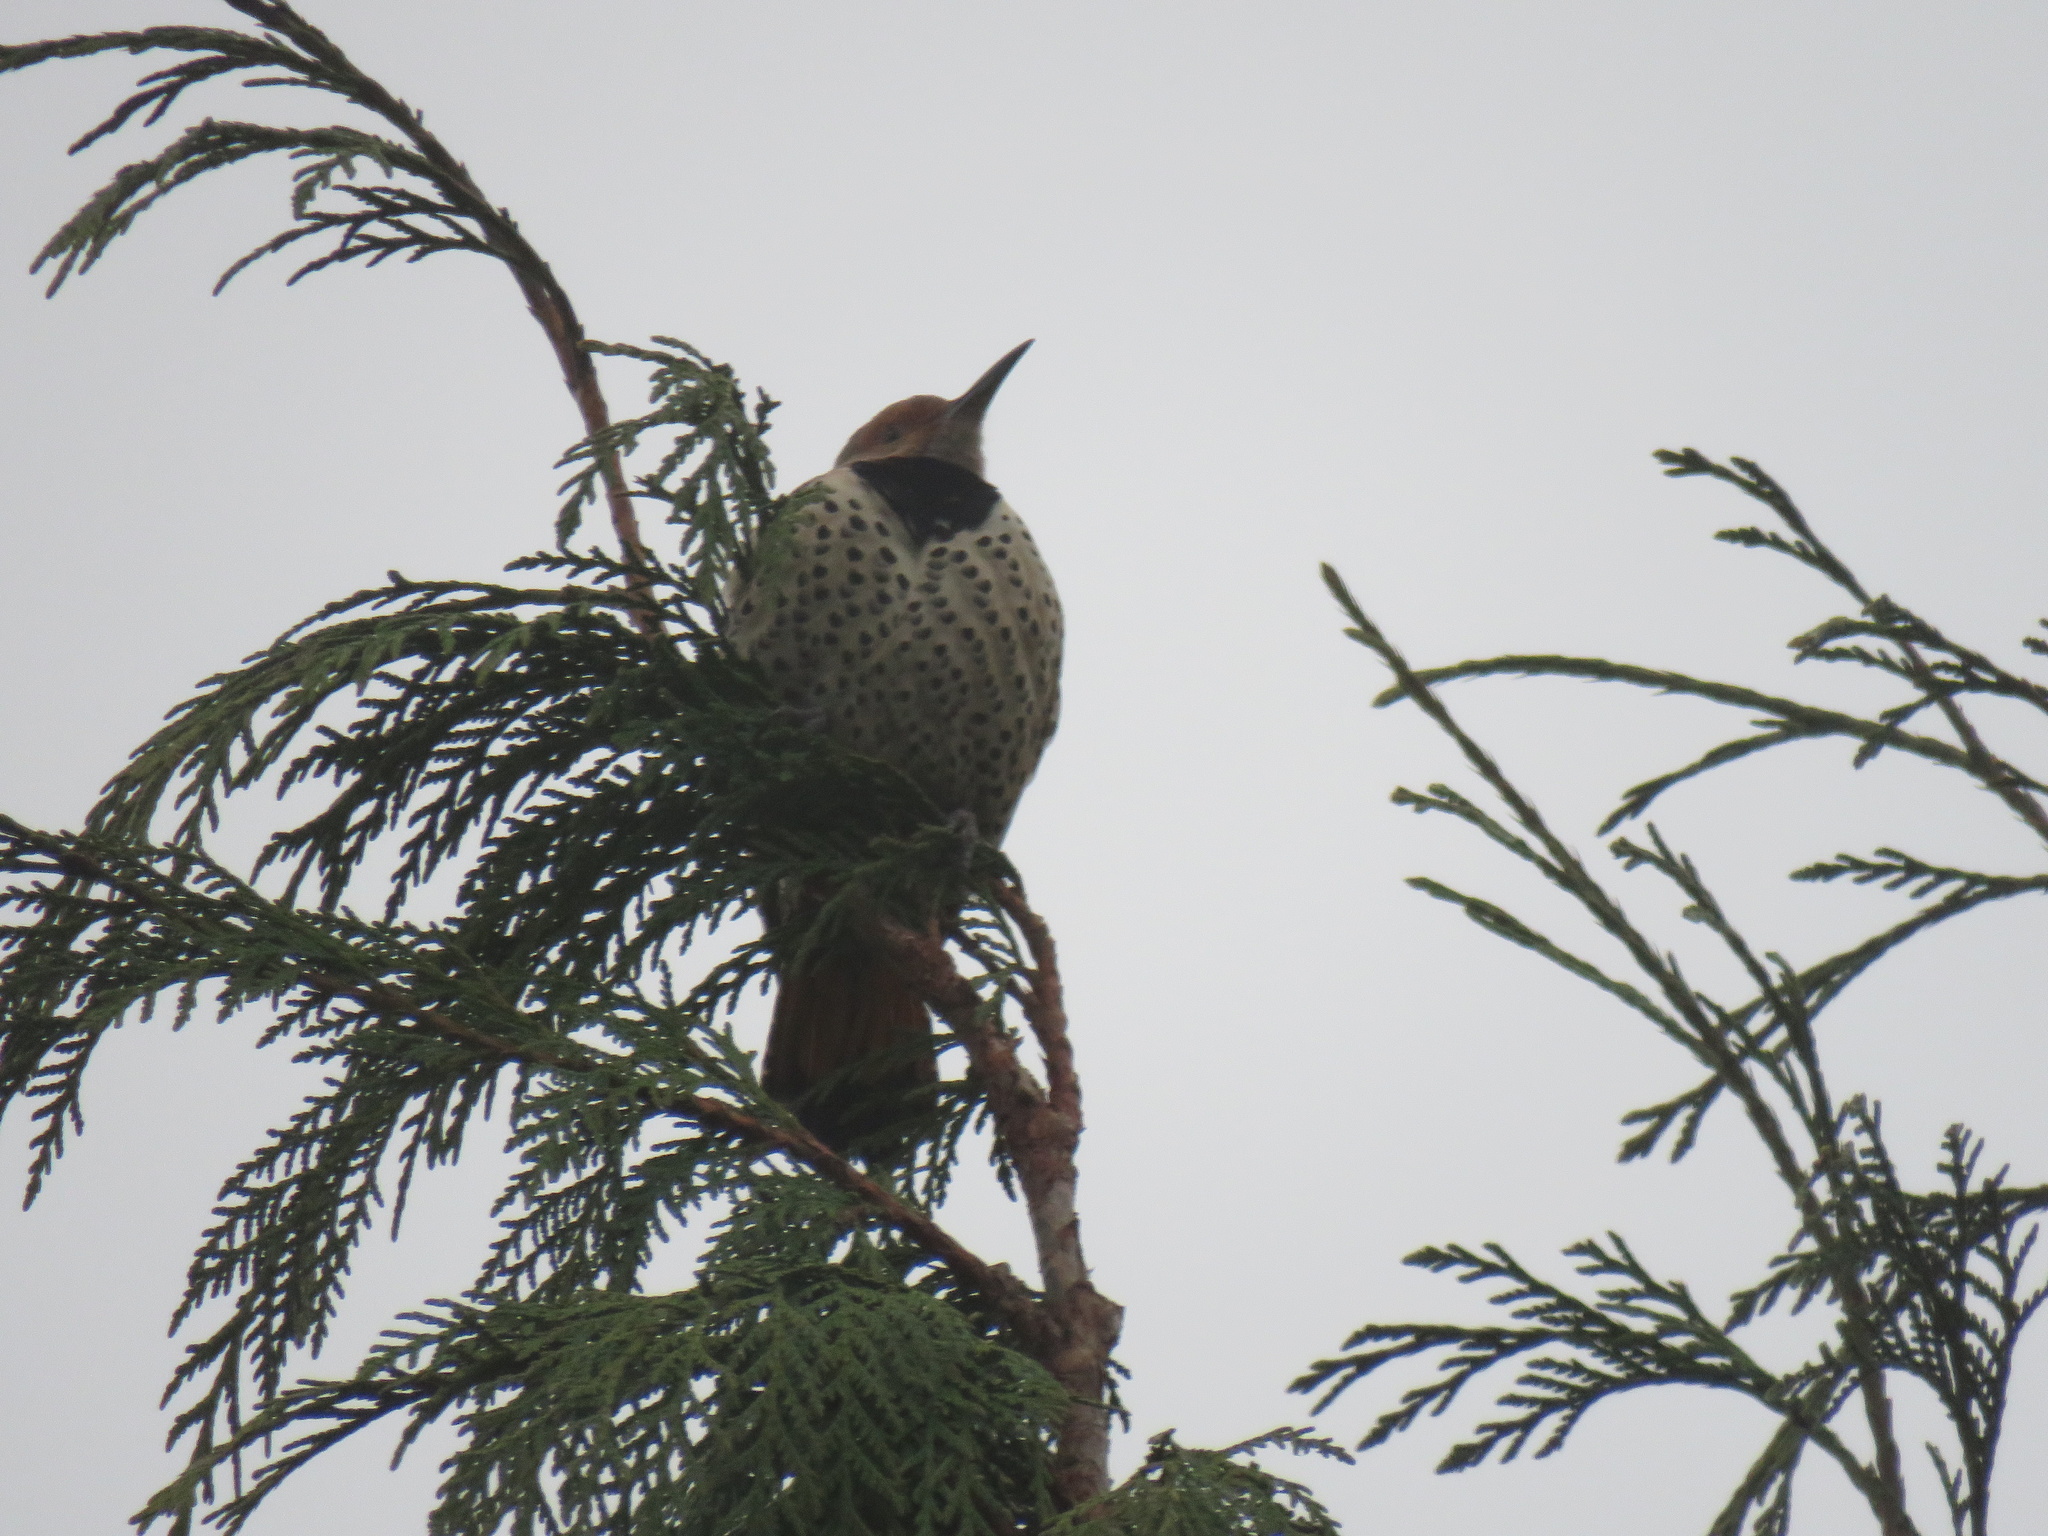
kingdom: Animalia
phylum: Chordata
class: Aves
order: Piciformes
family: Picidae
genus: Colaptes
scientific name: Colaptes auratus
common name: Northern flicker
